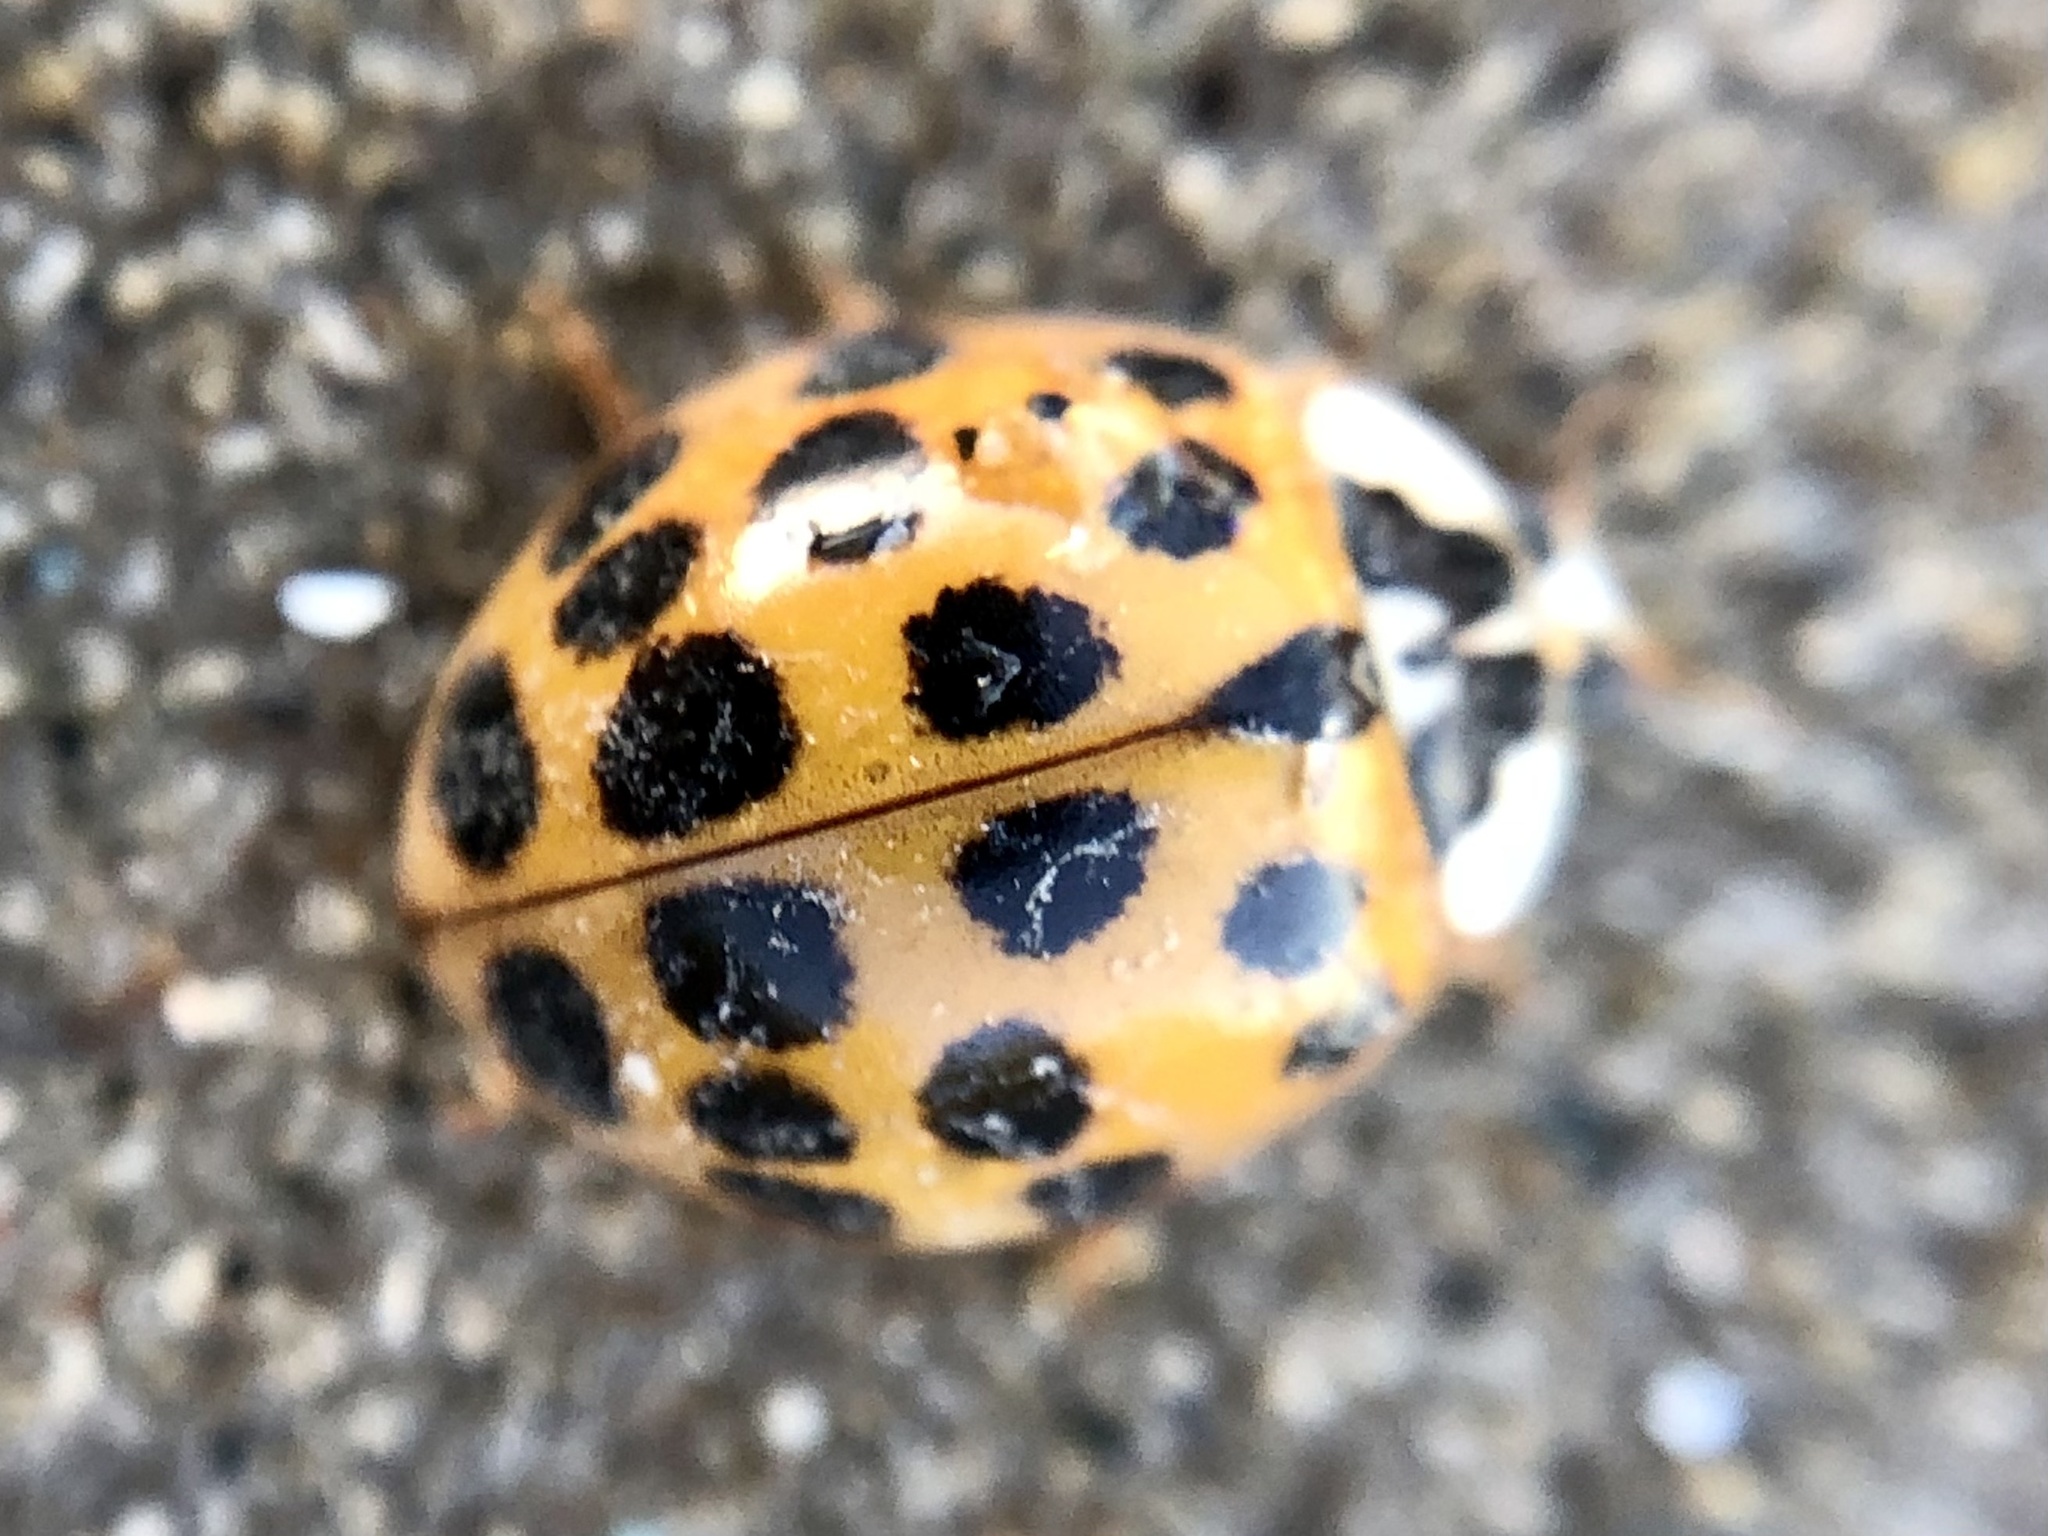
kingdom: Animalia
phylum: Arthropoda
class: Insecta
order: Coleoptera
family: Coccinellidae
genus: Harmonia
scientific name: Harmonia axyridis
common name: Harlequin ladybird
